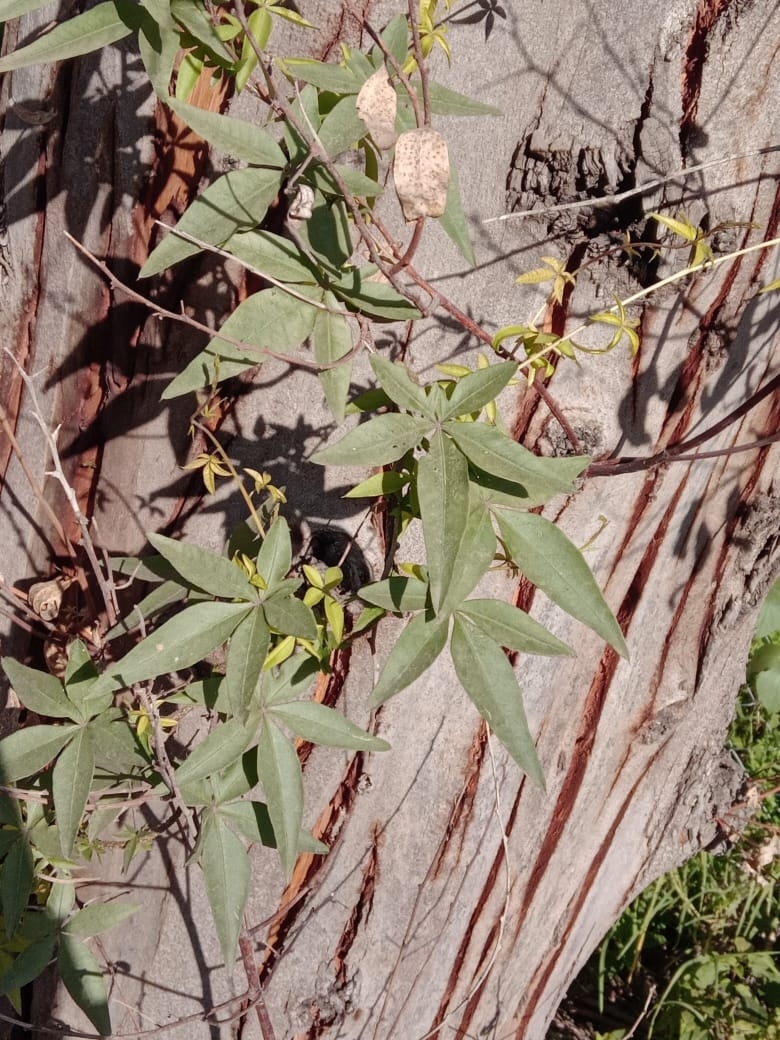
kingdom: Plantae
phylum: Tracheophyta
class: Magnoliopsida
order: Solanales
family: Convolvulaceae
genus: Ipomoea
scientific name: Ipomoea cairica
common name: Mile a minute vine
